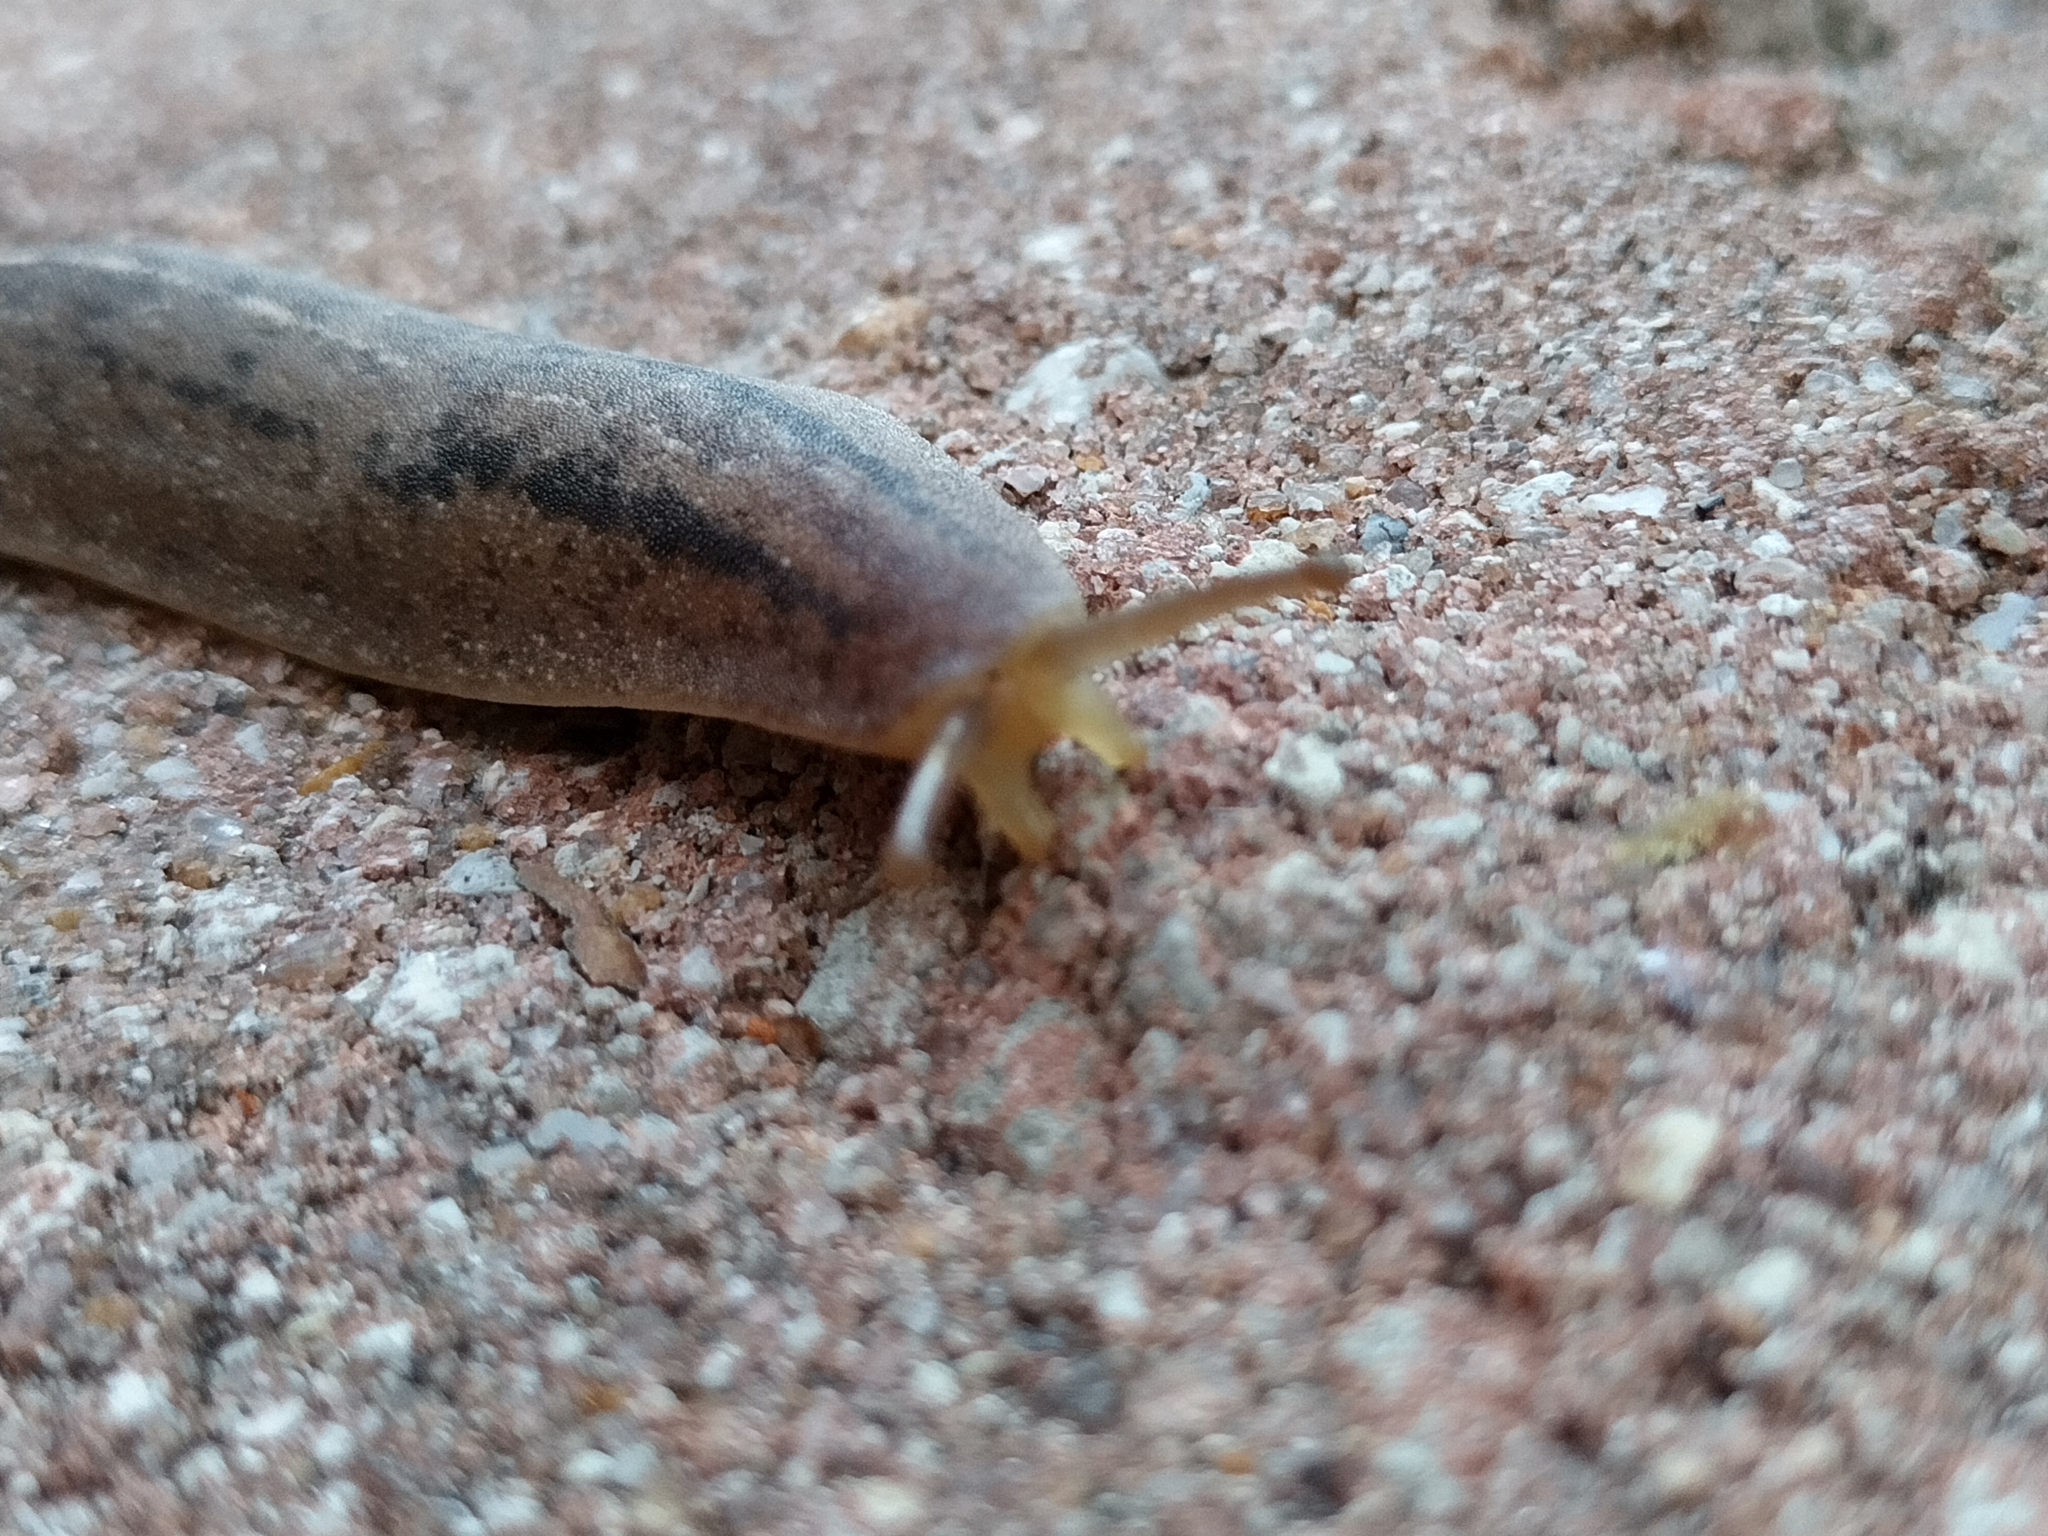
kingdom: Animalia
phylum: Mollusca
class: Gastropoda
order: Systellommatophora
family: Veronicellidae
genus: Leidyula
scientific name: Leidyula floridana
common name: Florida leatherleaf
